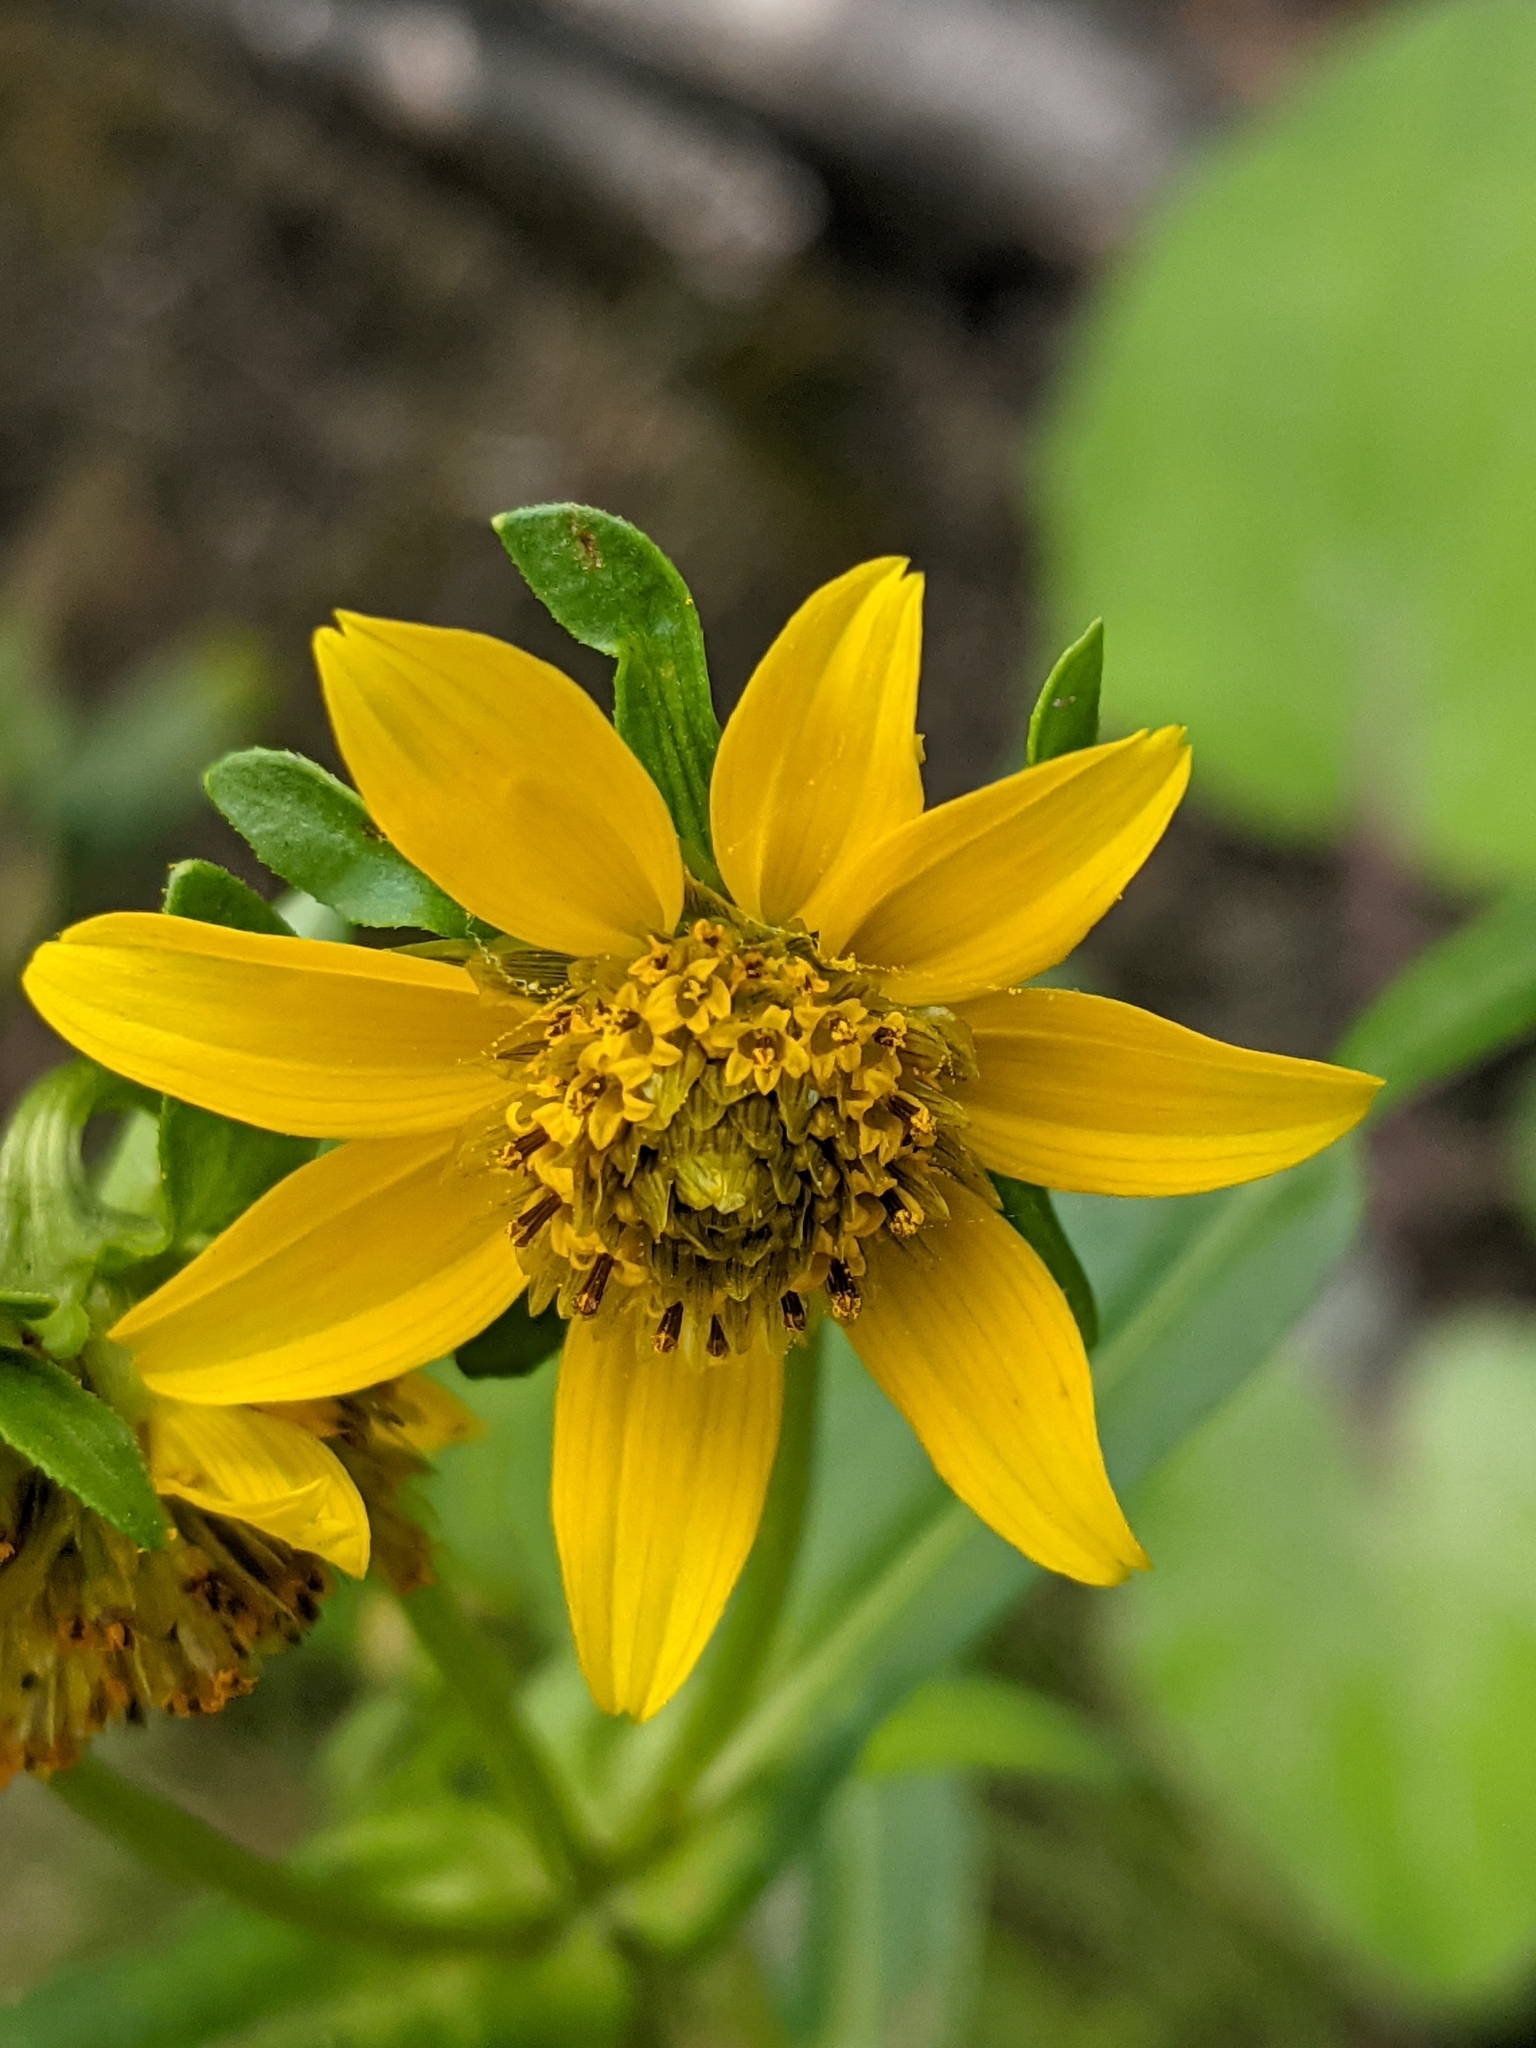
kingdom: Plantae
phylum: Tracheophyta
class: Magnoliopsida
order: Asterales
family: Asteraceae
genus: Bidens
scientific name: Bidens cernua
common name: Nodding bur-marigold
